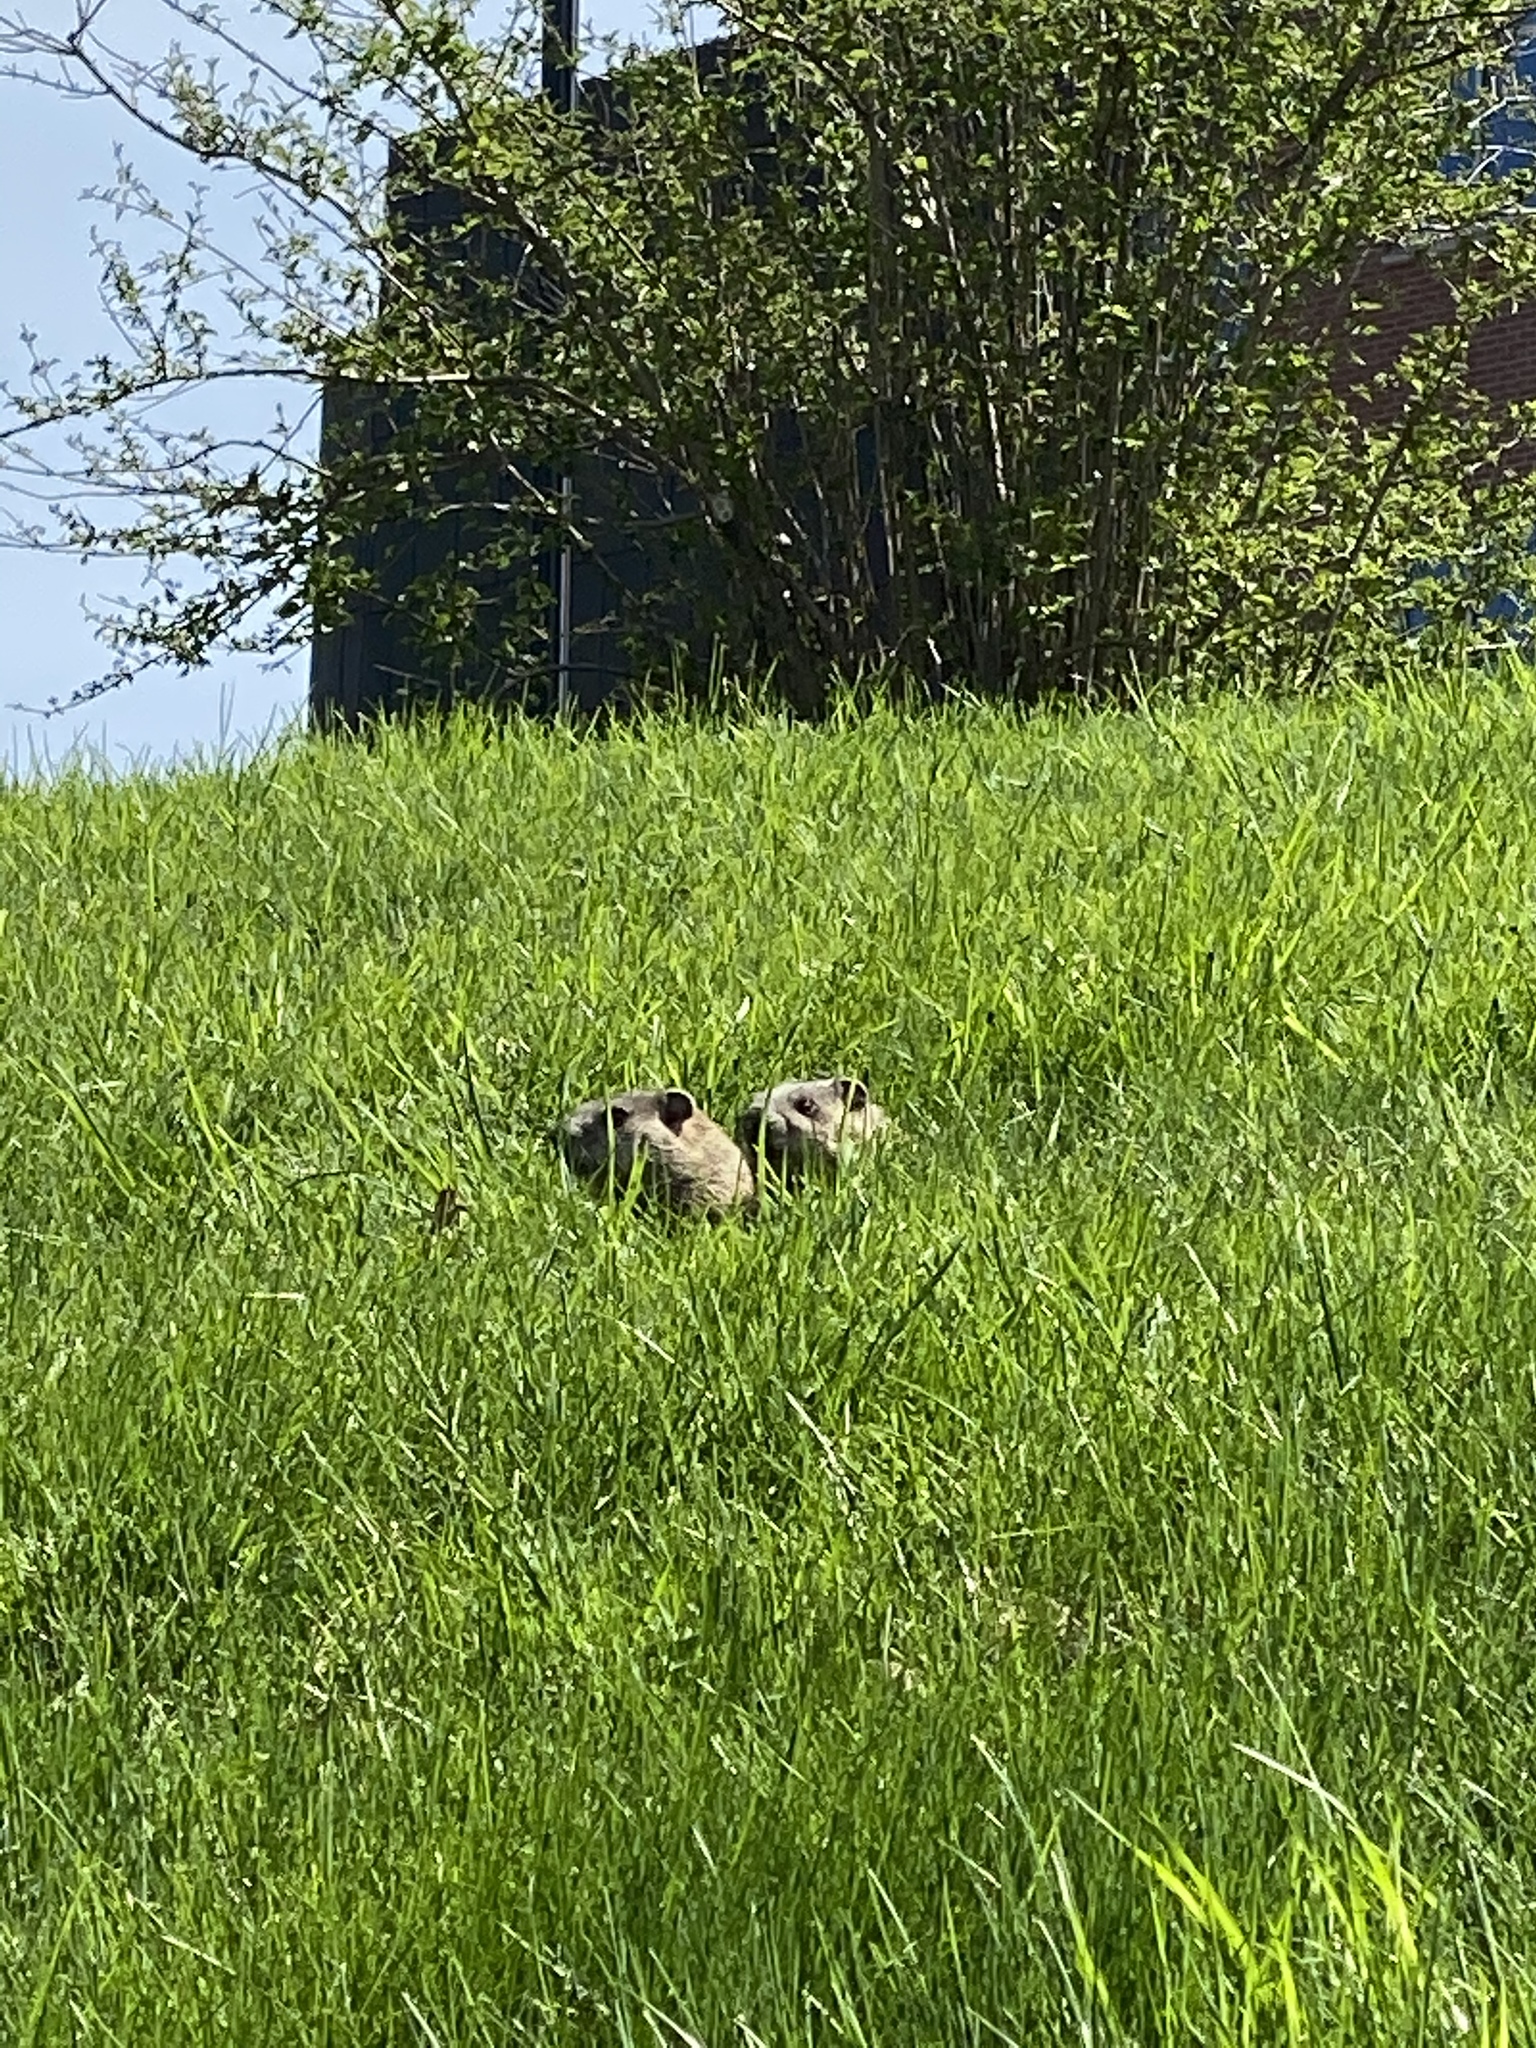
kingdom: Animalia
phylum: Chordata
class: Mammalia
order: Rodentia
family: Sciuridae
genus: Marmota
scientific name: Marmota monax
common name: Groundhog
